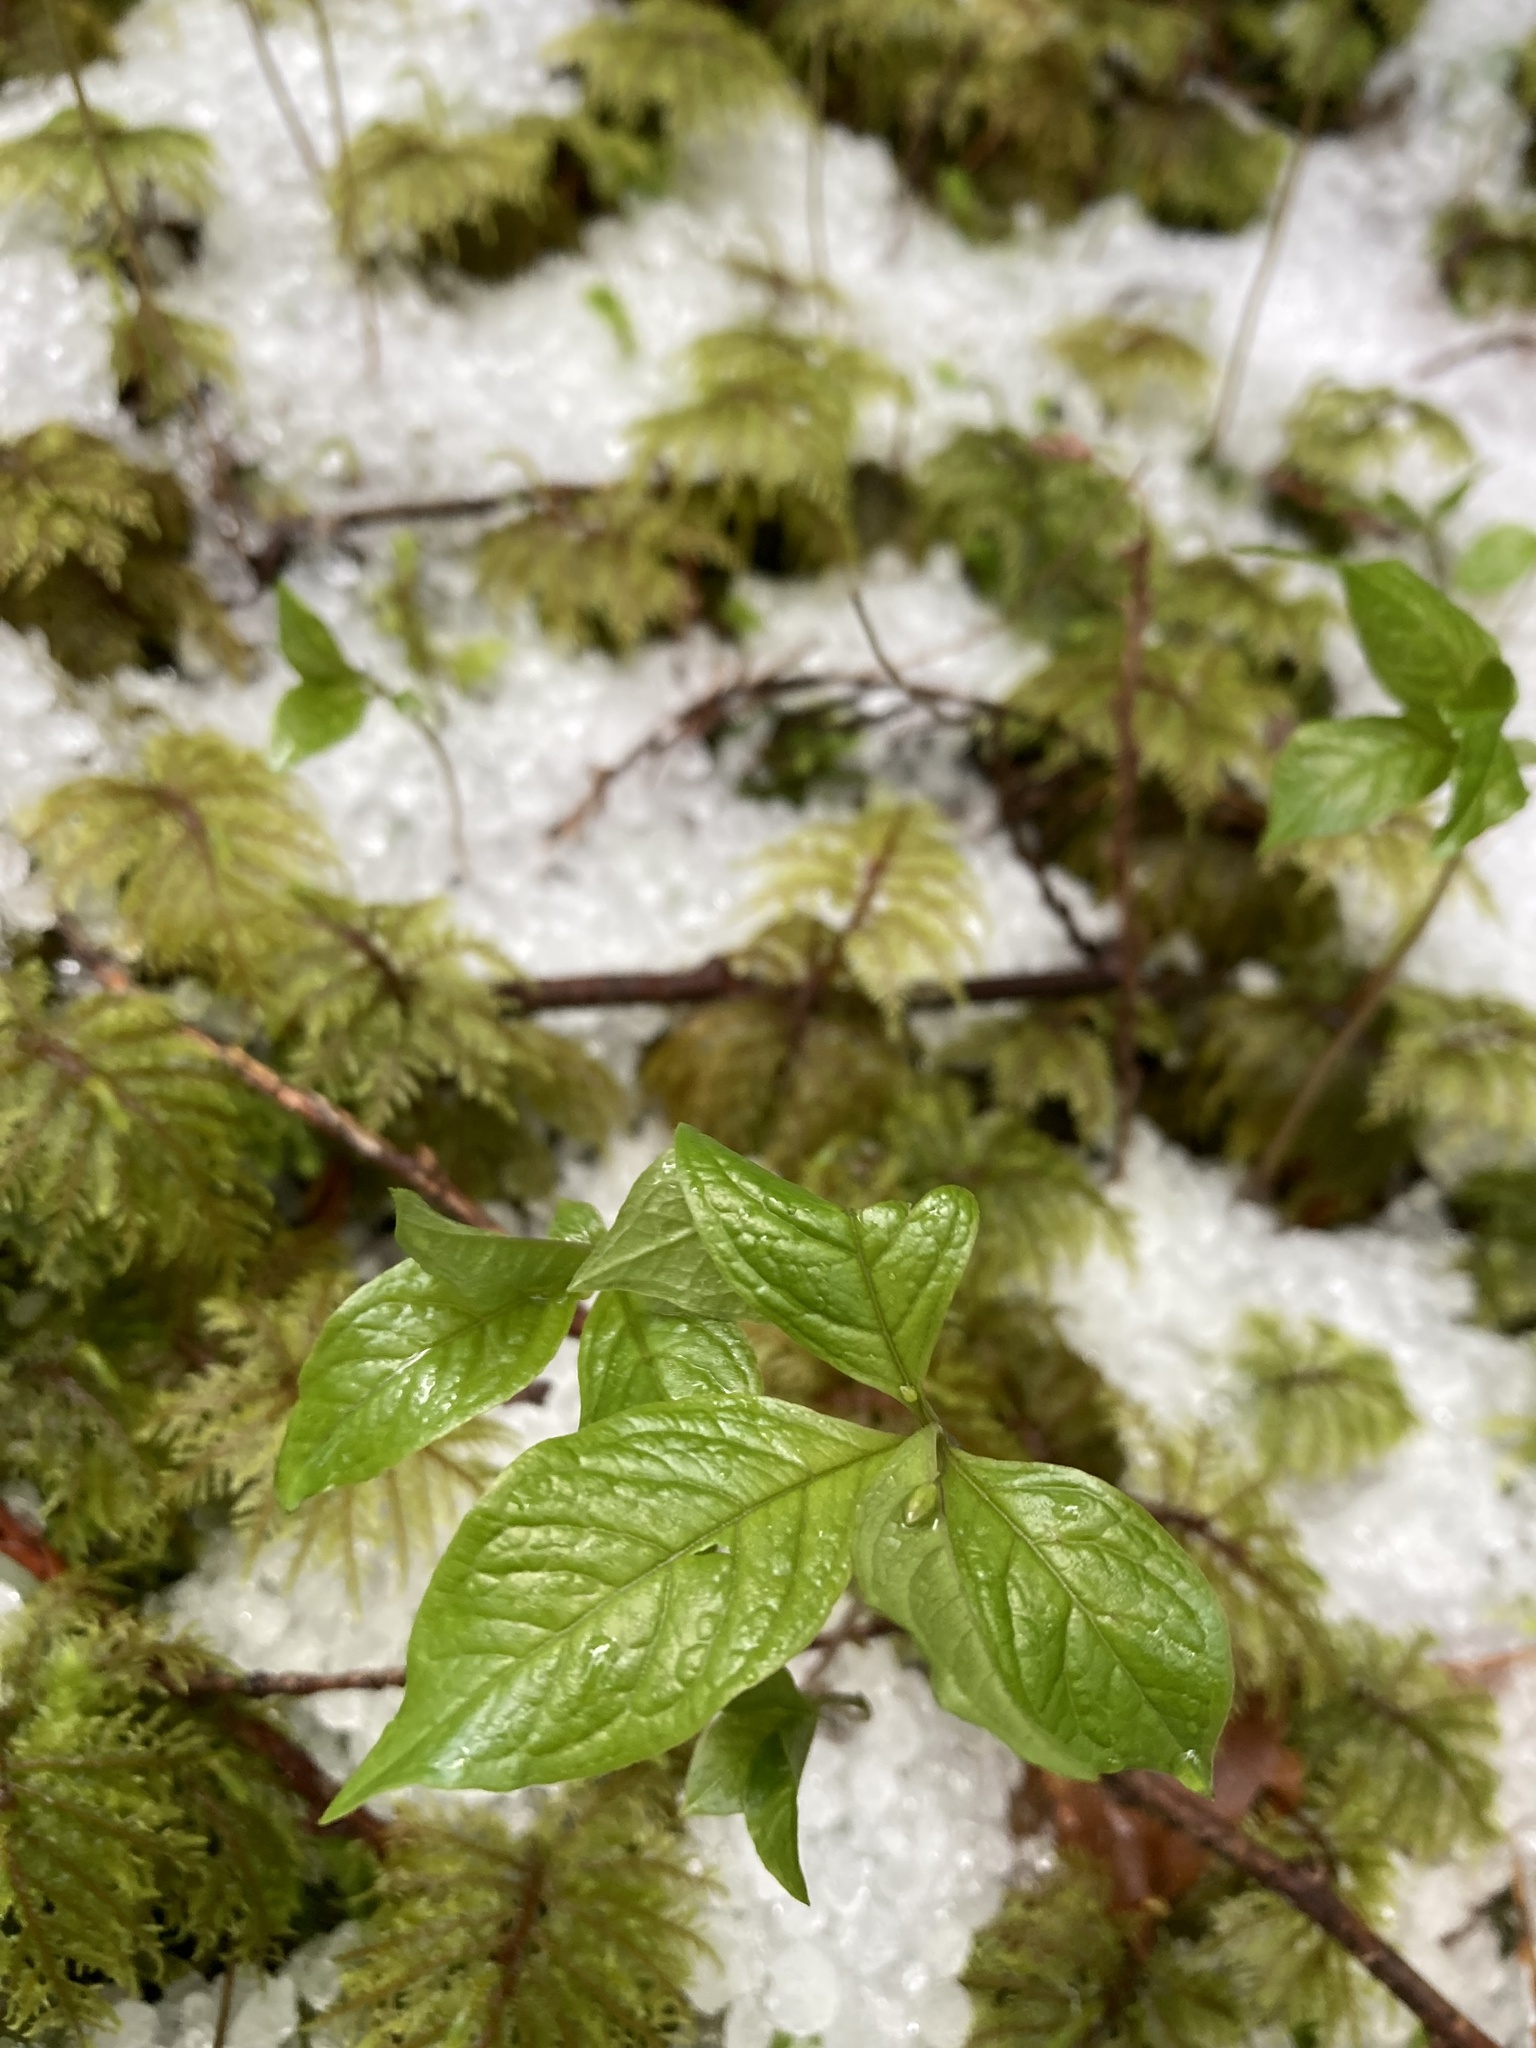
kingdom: Plantae
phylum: Tracheophyta
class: Magnoliopsida
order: Ericales
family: Primulaceae
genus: Lysimachia
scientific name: Lysimachia latifolia
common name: Pacific starflower
